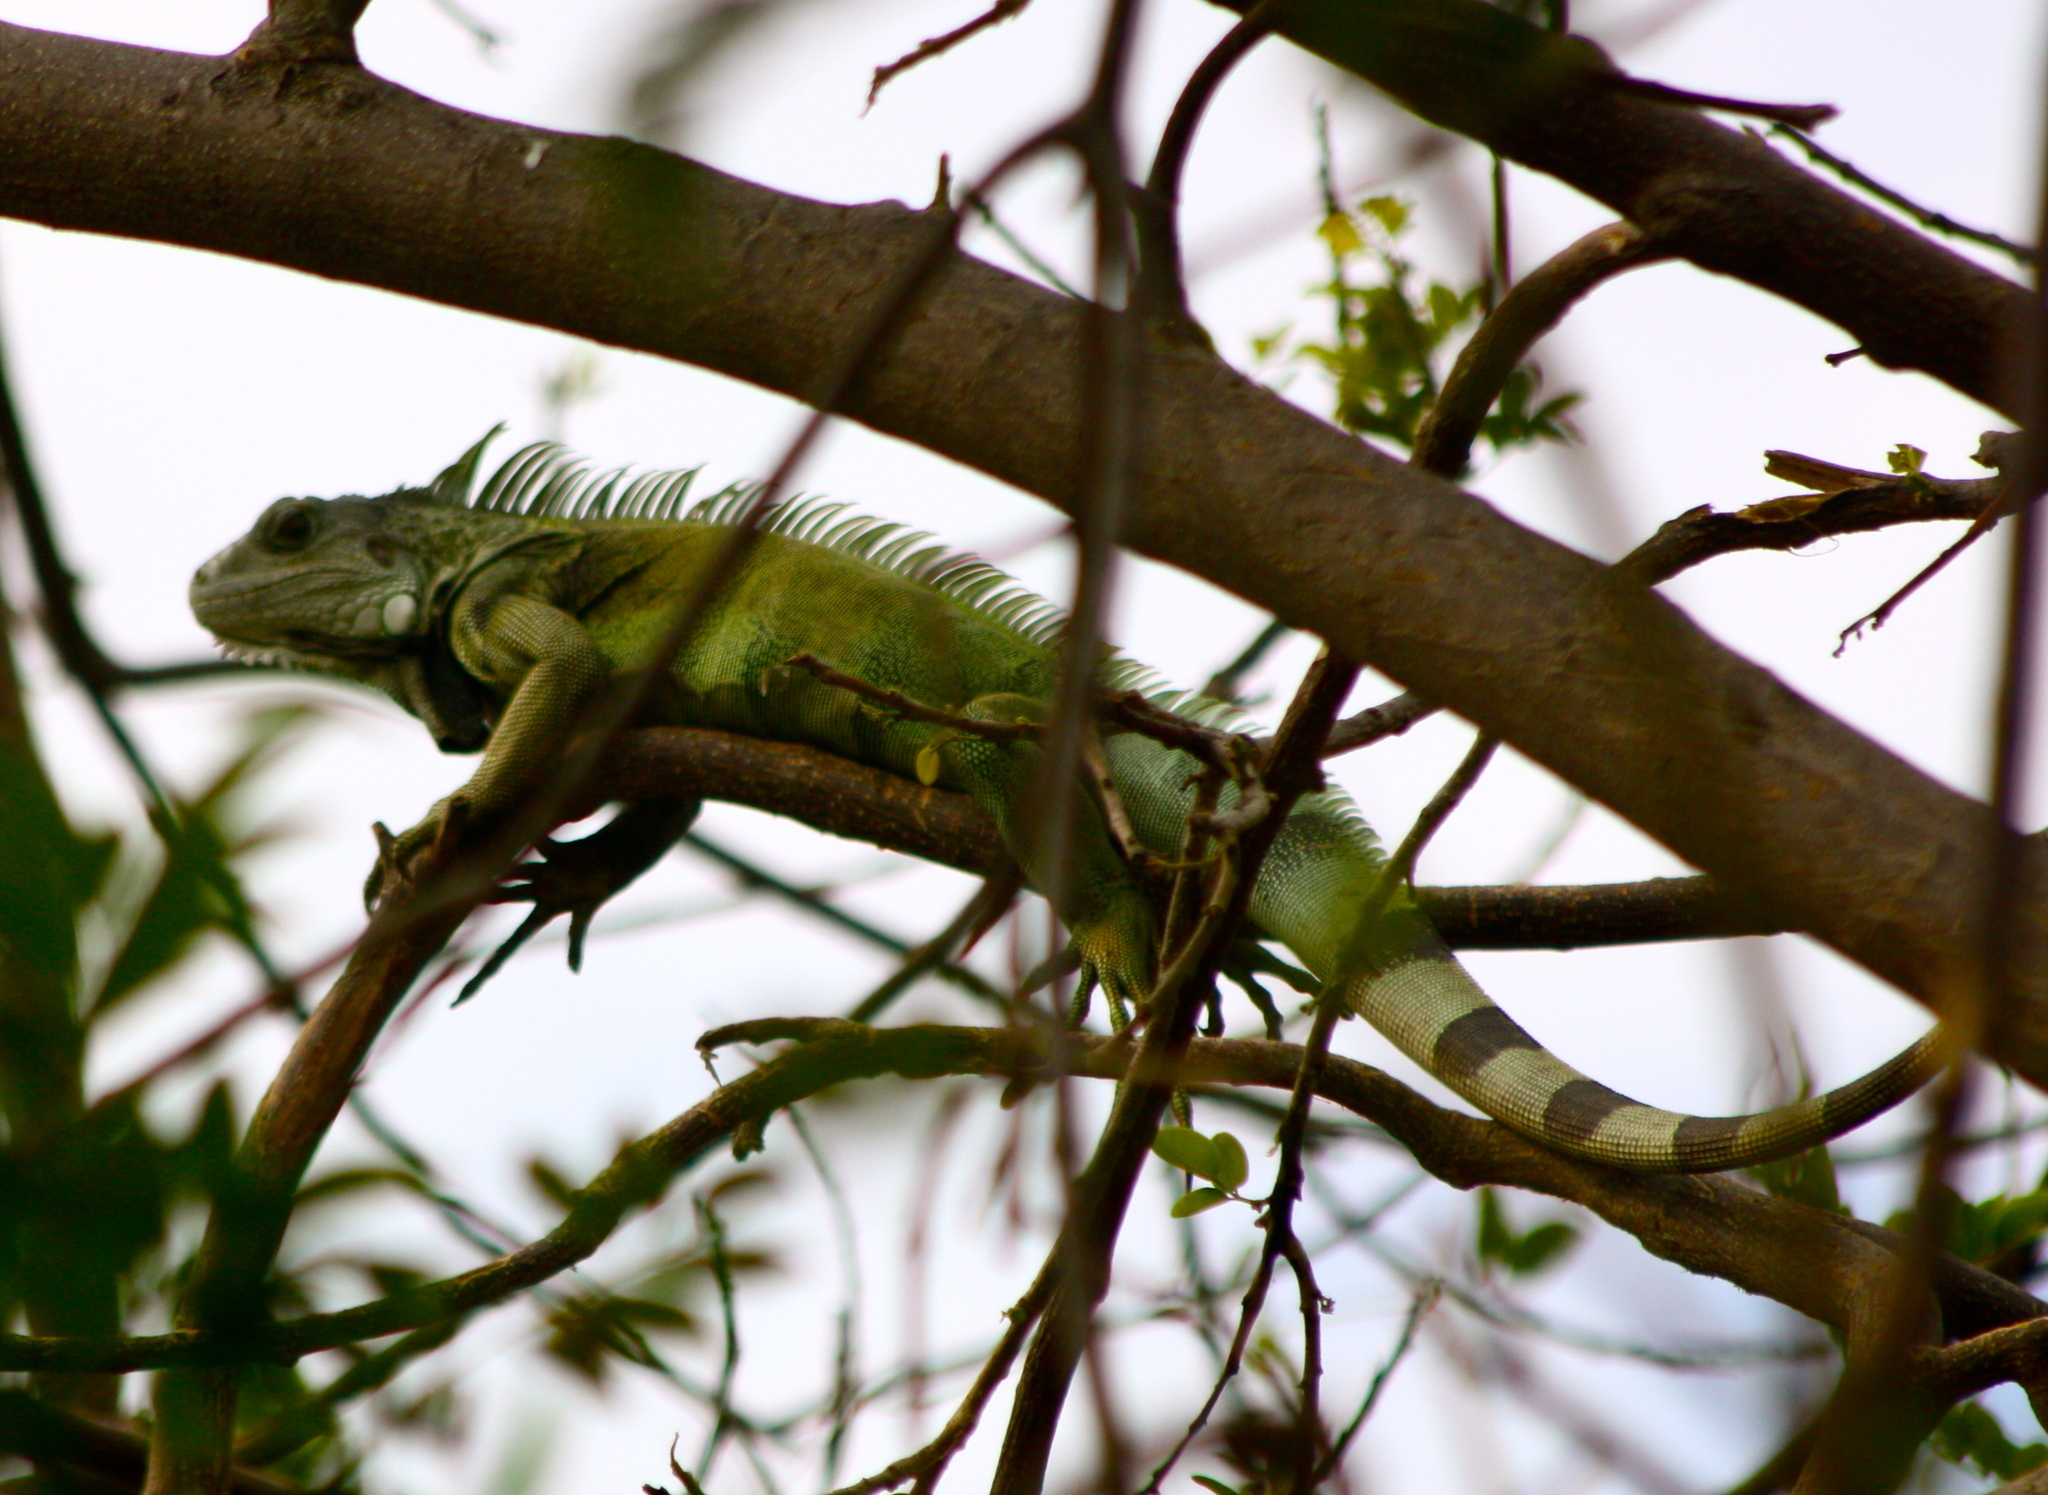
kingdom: Animalia
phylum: Chordata
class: Squamata
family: Iguanidae
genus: Iguana
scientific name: Iguana iguana
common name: Green iguana
